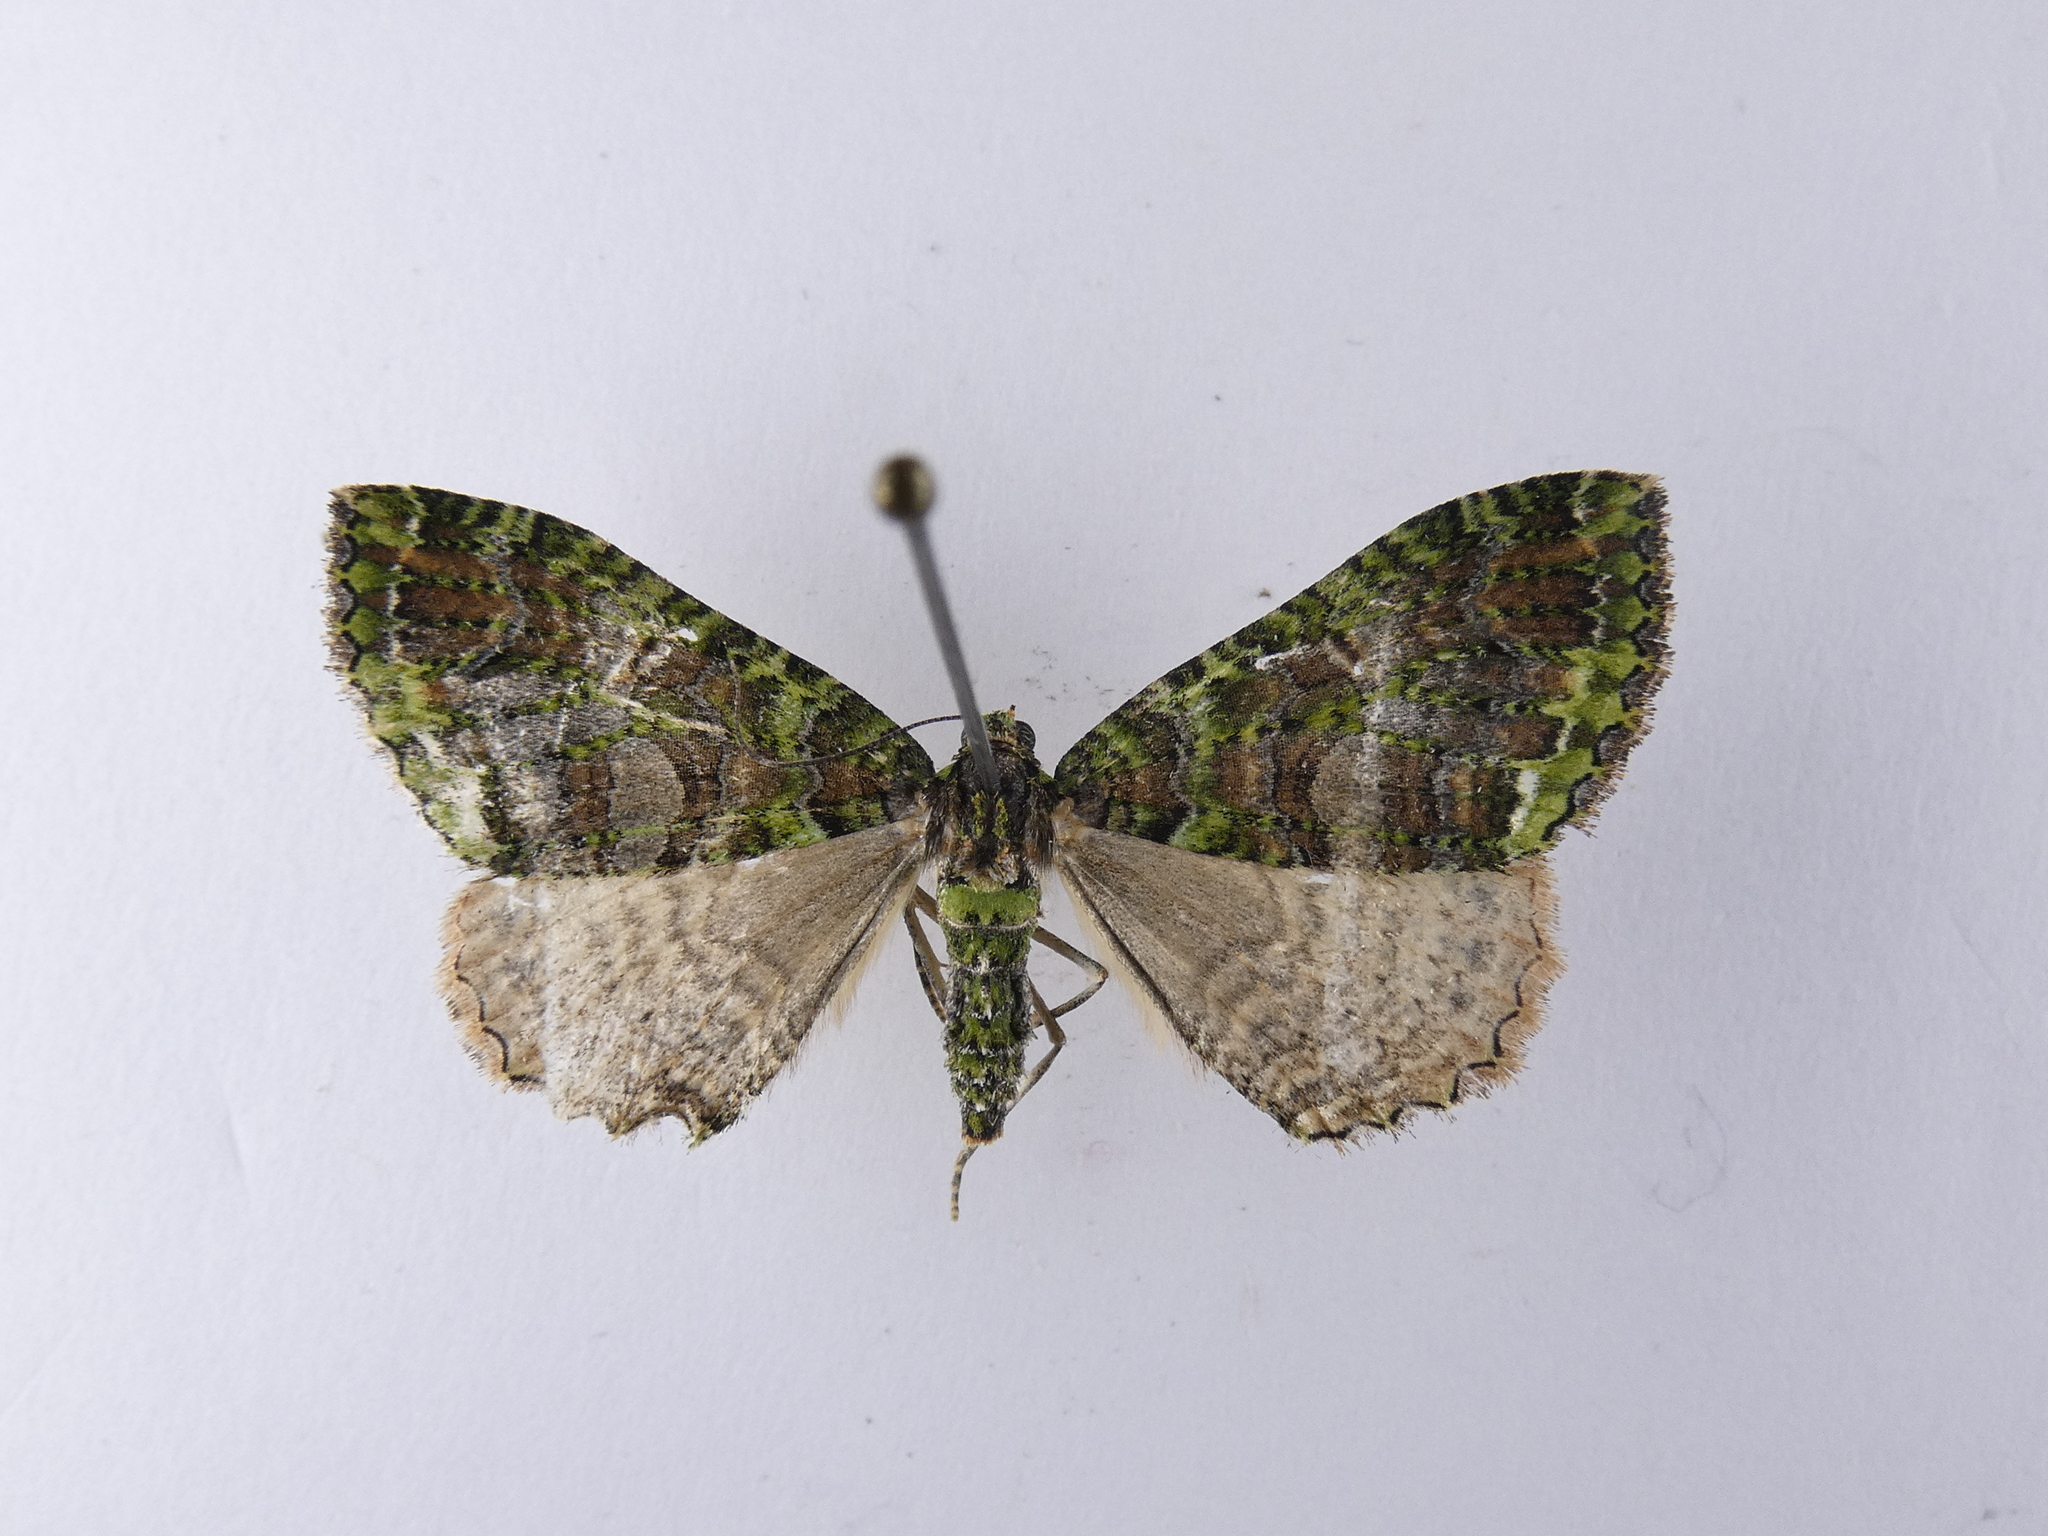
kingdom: Animalia
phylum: Arthropoda
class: Insecta
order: Lepidoptera
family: Geometridae
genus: Austrocidaria
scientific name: Austrocidaria similata
